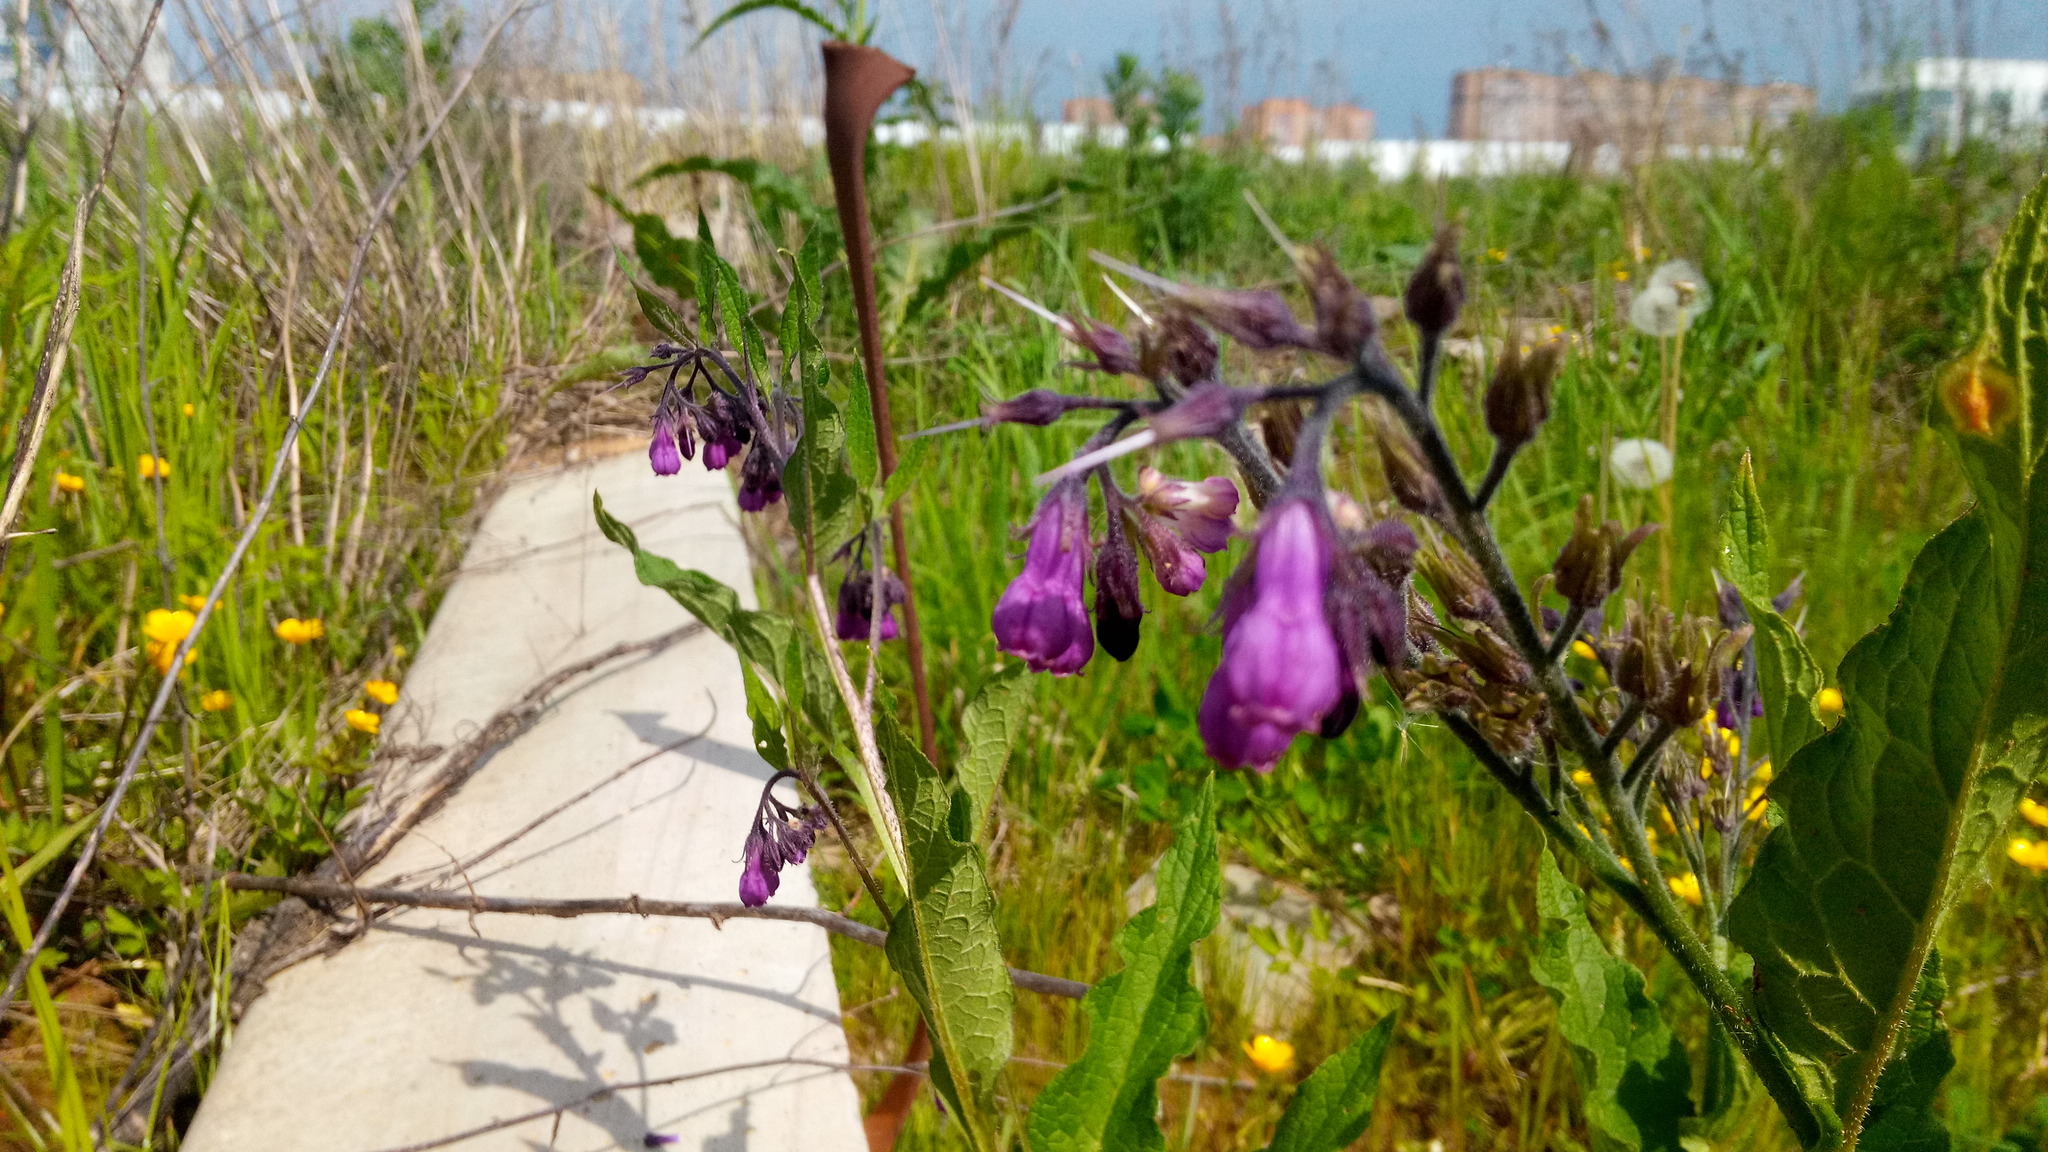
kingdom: Plantae
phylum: Tracheophyta
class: Magnoliopsida
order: Boraginales
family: Boraginaceae
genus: Symphytum
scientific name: Symphytum officinale
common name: Common comfrey
